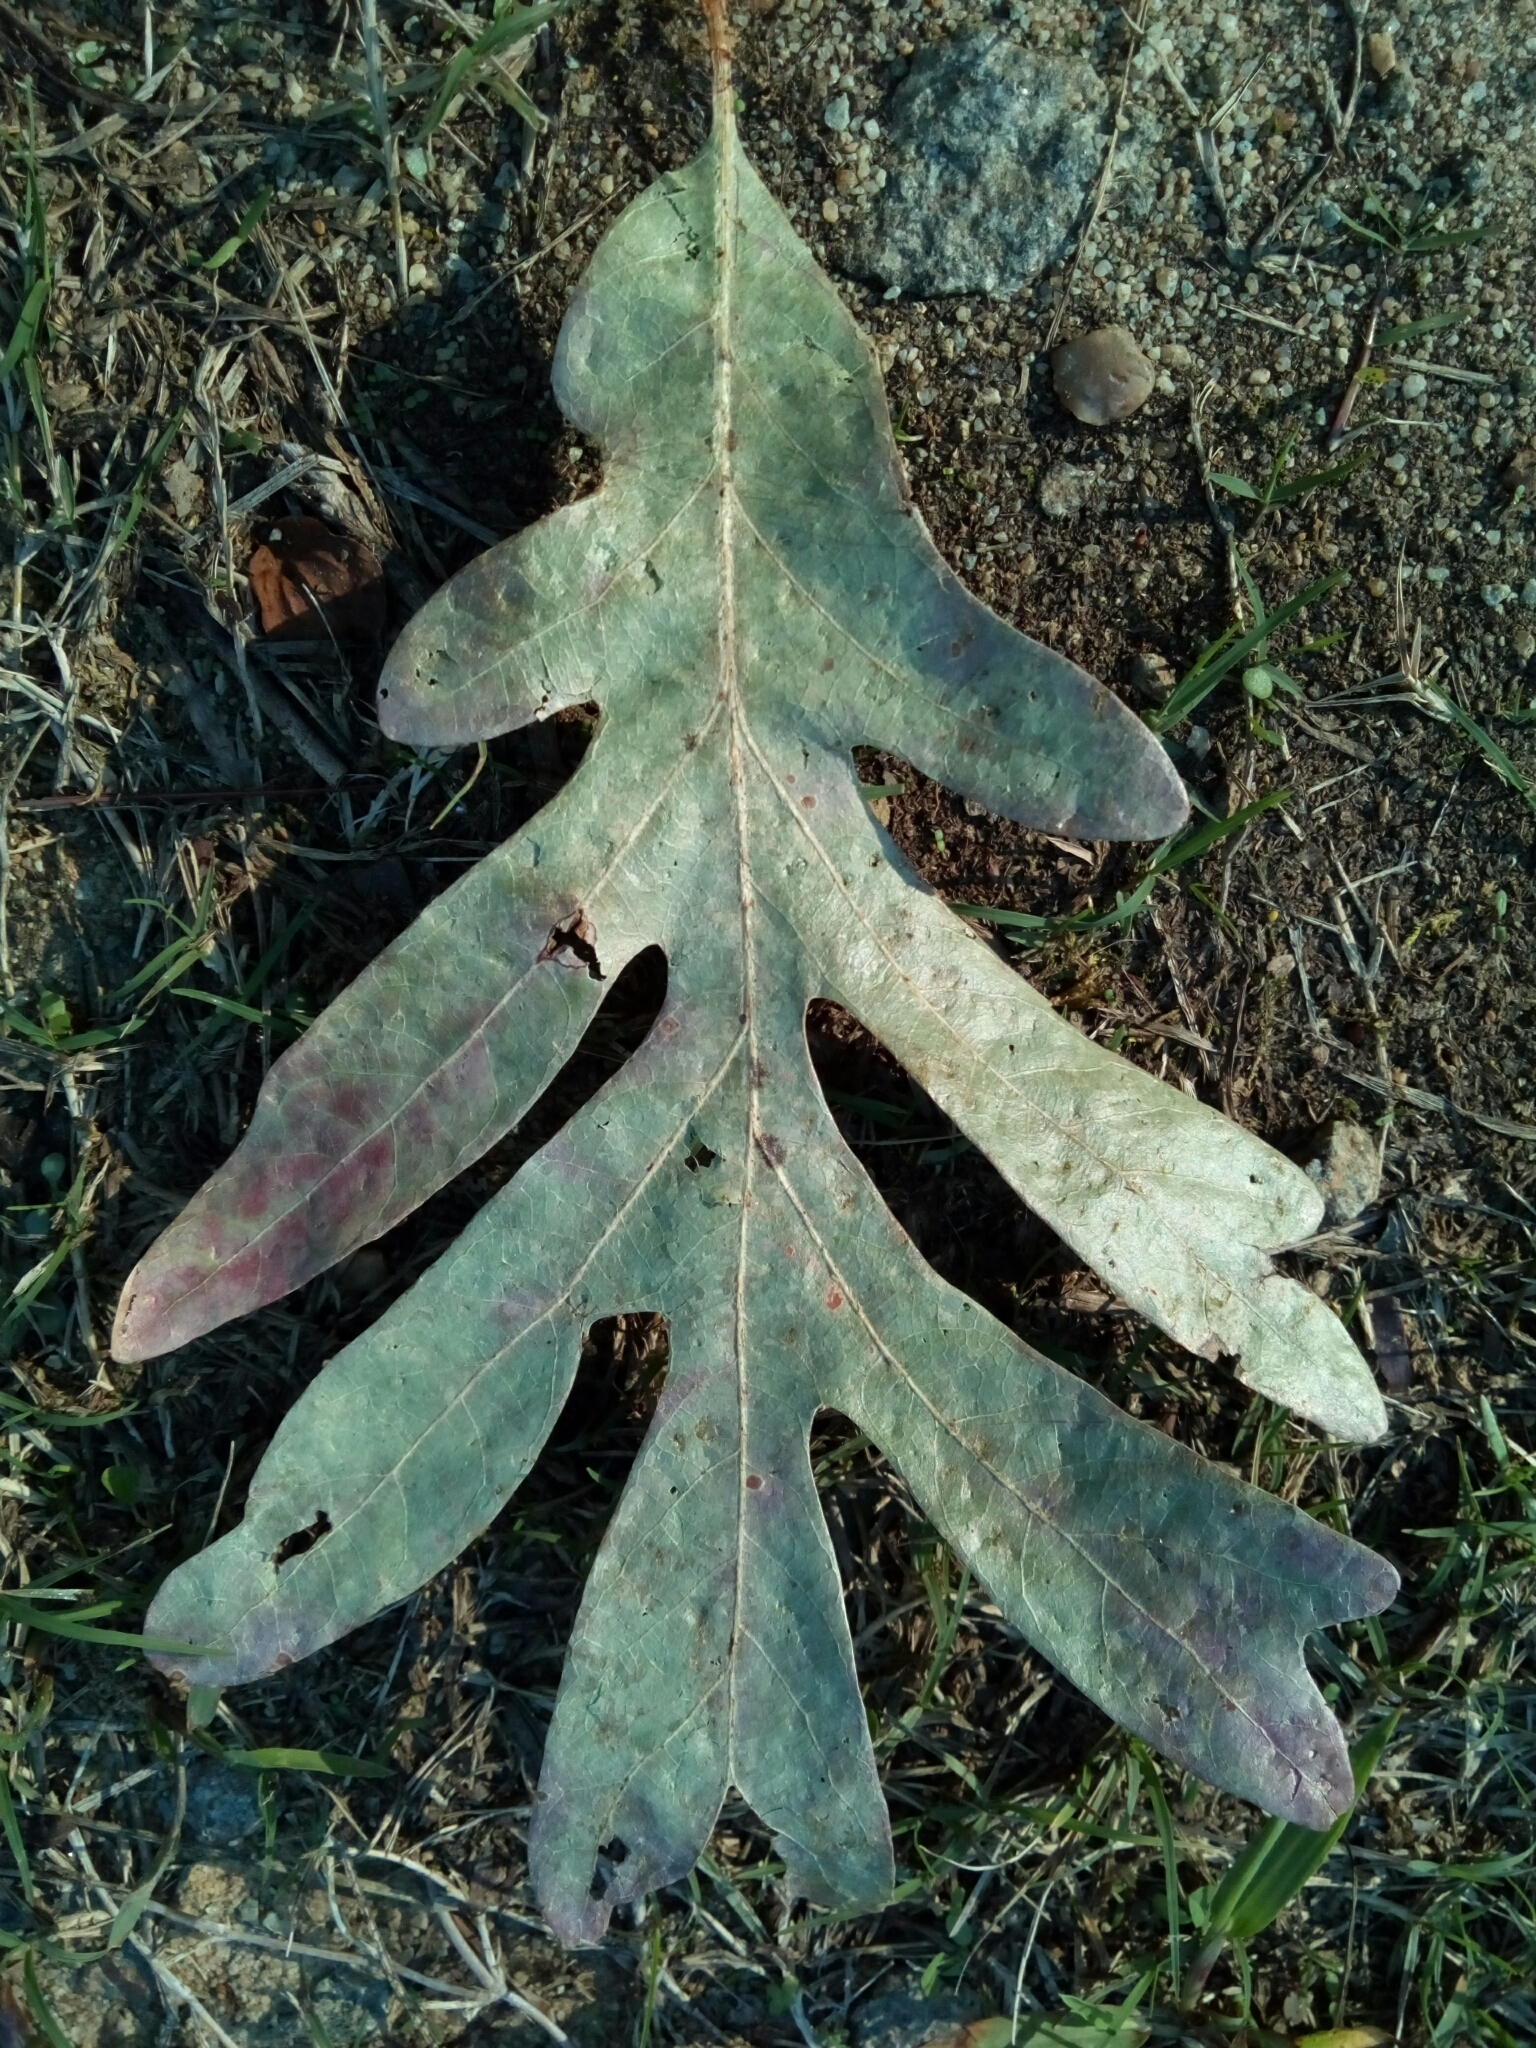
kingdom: Plantae
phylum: Tracheophyta
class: Magnoliopsida
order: Fagales
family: Fagaceae
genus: Quercus
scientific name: Quercus alba
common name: White oak
